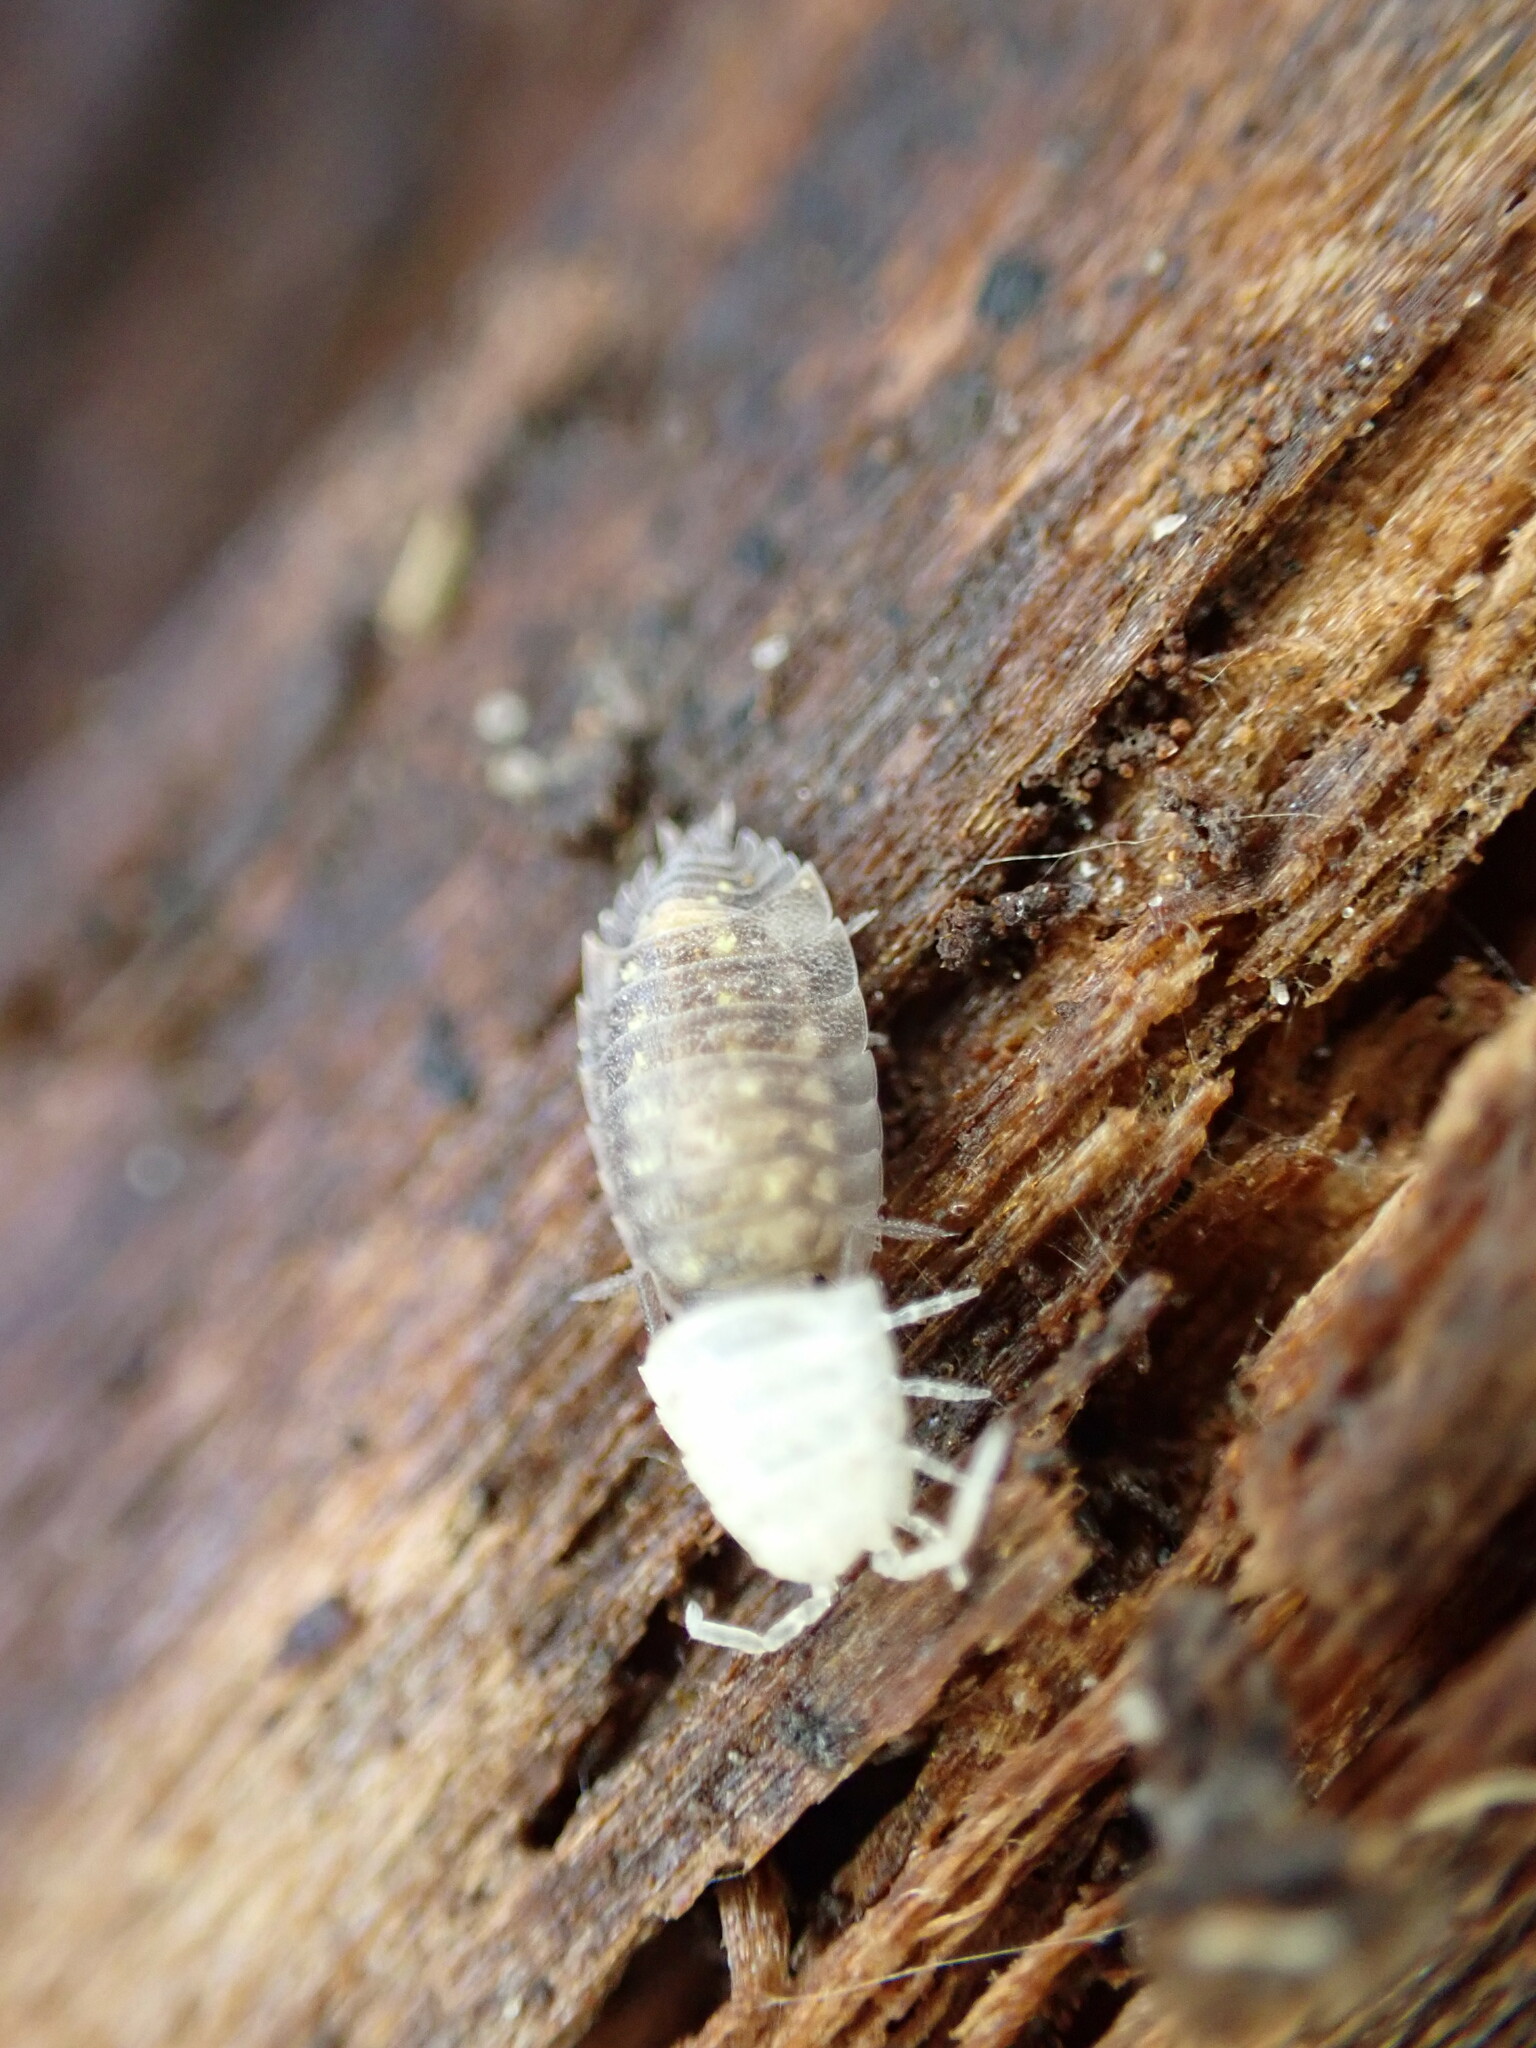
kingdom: Animalia
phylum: Arthropoda
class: Malacostraca
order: Isopoda
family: Oniscidae
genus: Oniscus
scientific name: Oniscus asellus
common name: Common shiny woodlouse
